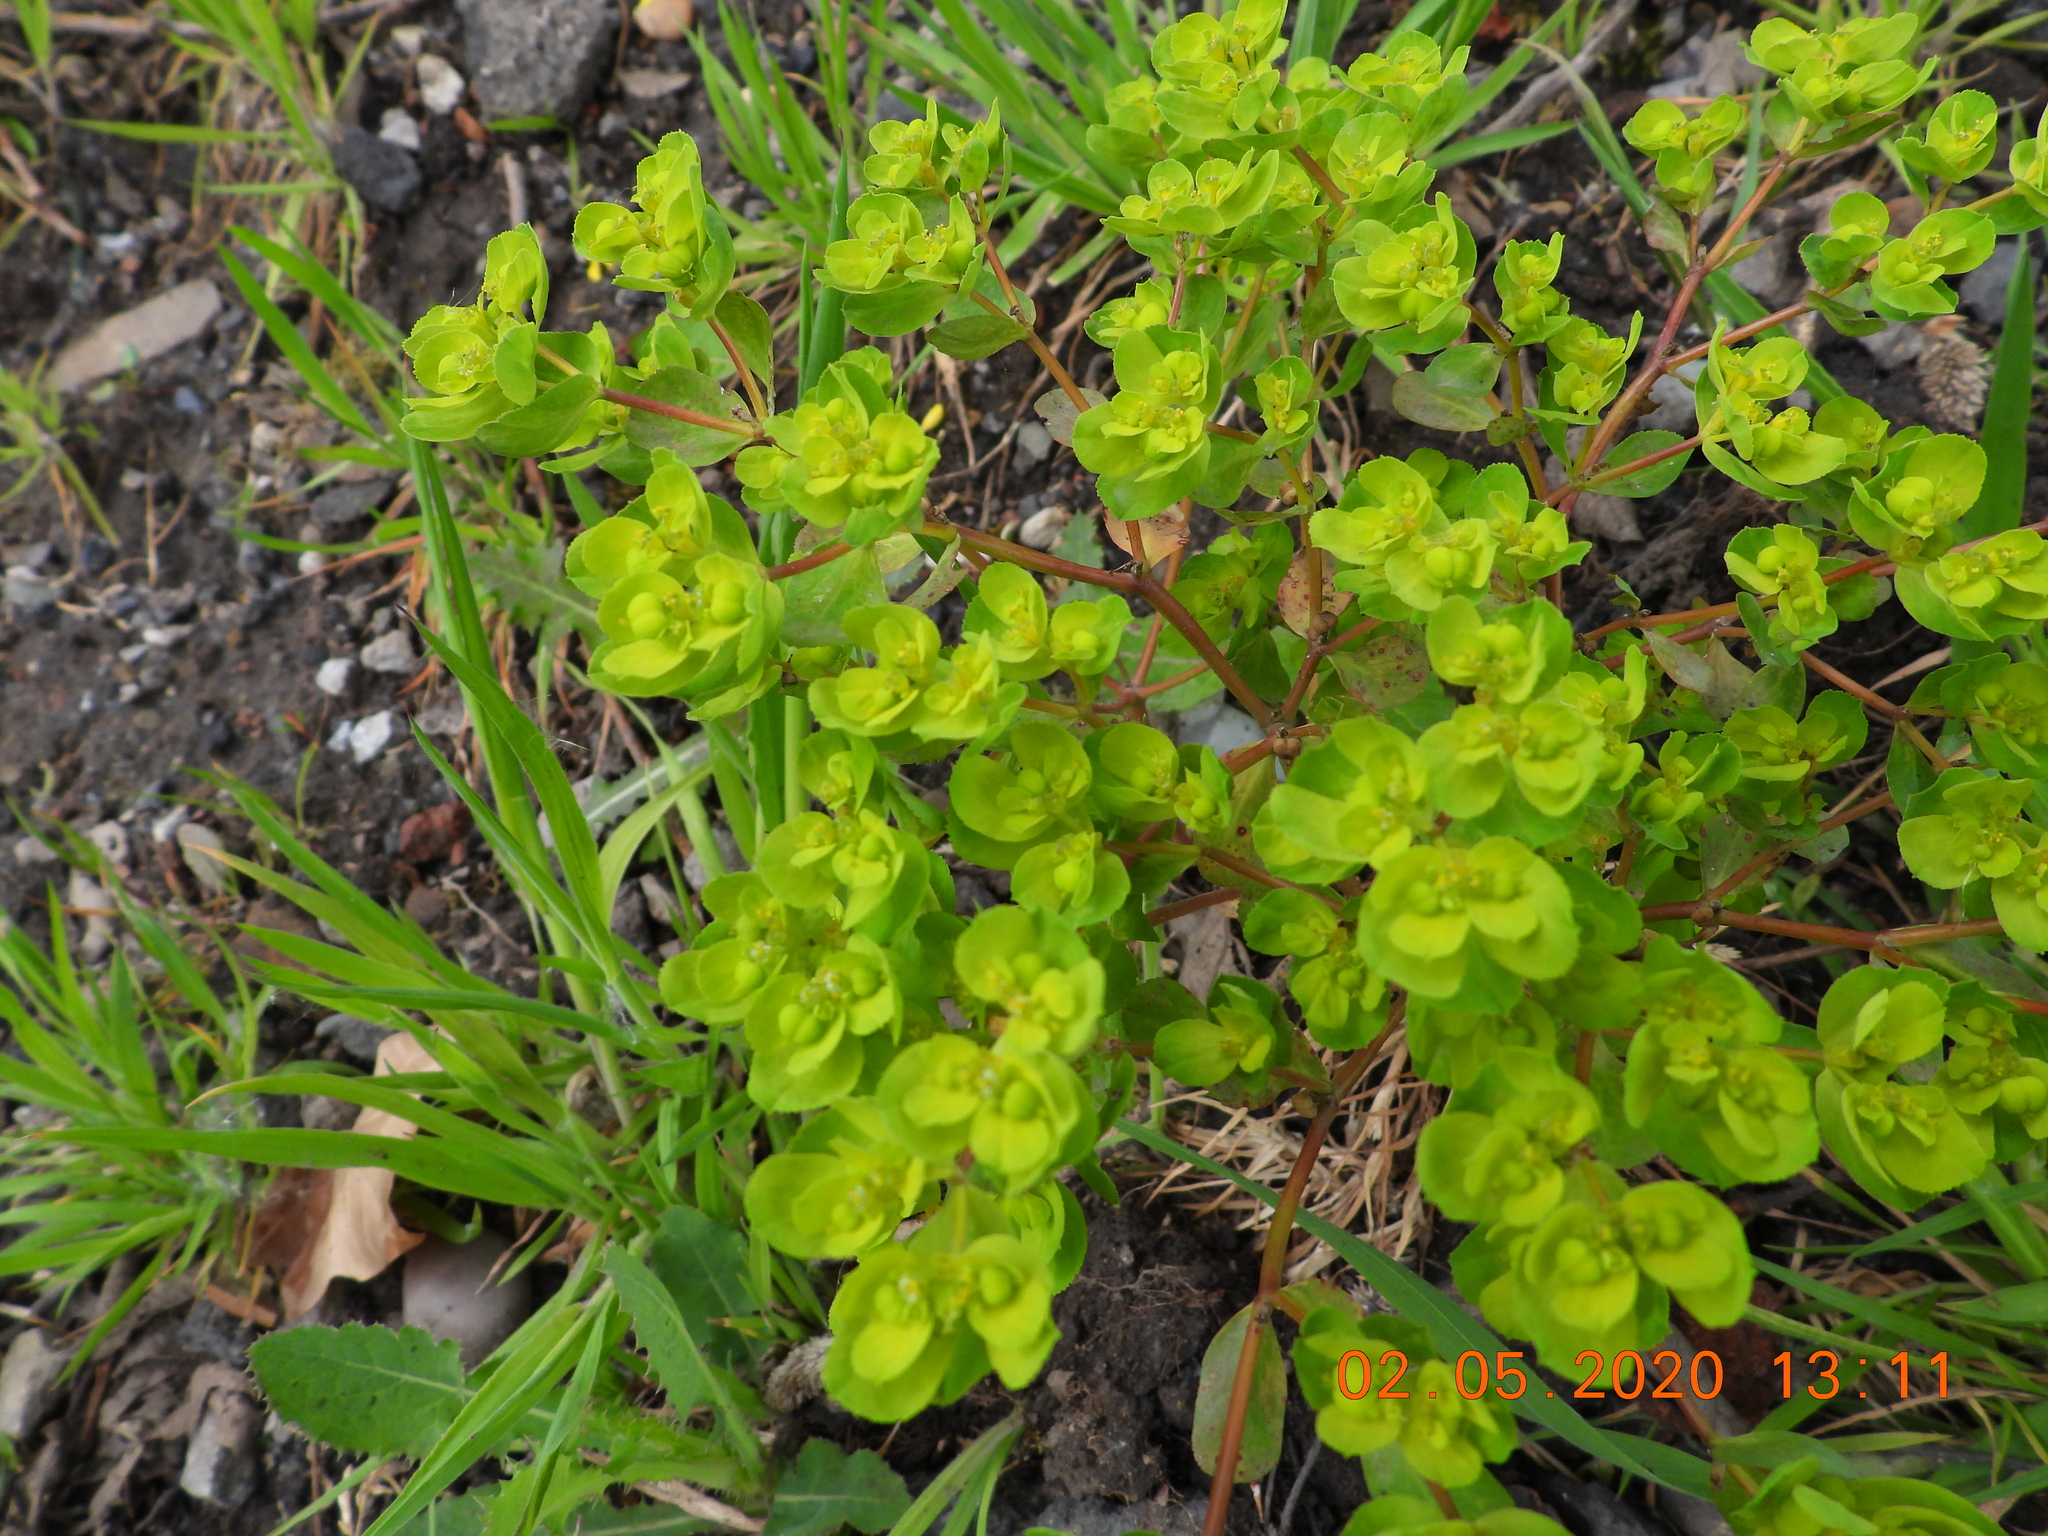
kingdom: Plantae
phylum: Tracheophyta
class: Magnoliopsida
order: Malpighiales
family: Euphorbiaceae
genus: Euphorbia
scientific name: Euphorbia helioscopia
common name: Sun spurge
